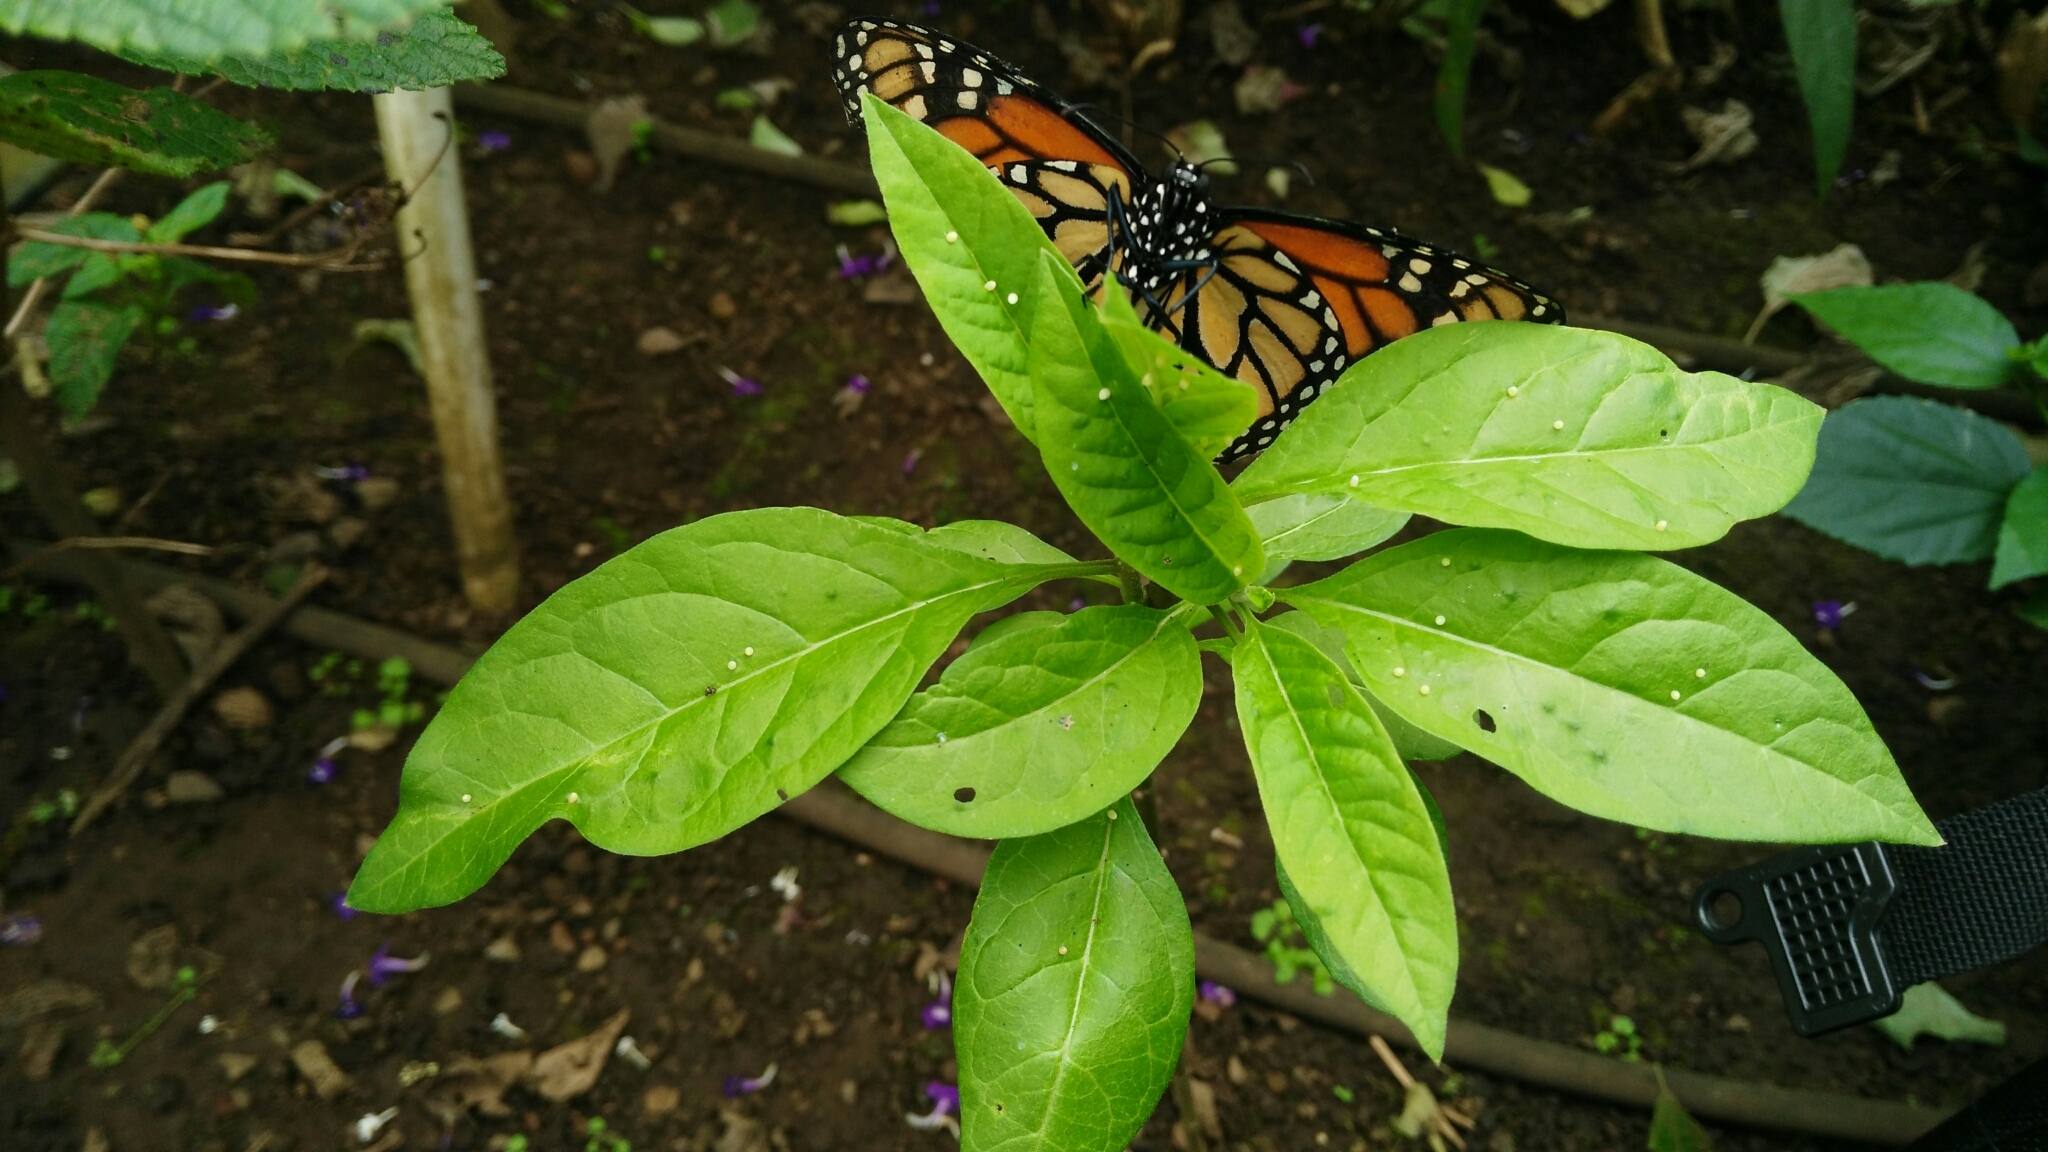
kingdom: Animalia
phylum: Arthropoda
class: Insecta
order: Lepidoptera
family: Nymphalidae
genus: Danaus
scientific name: Danaus plexippus
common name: Monarch
